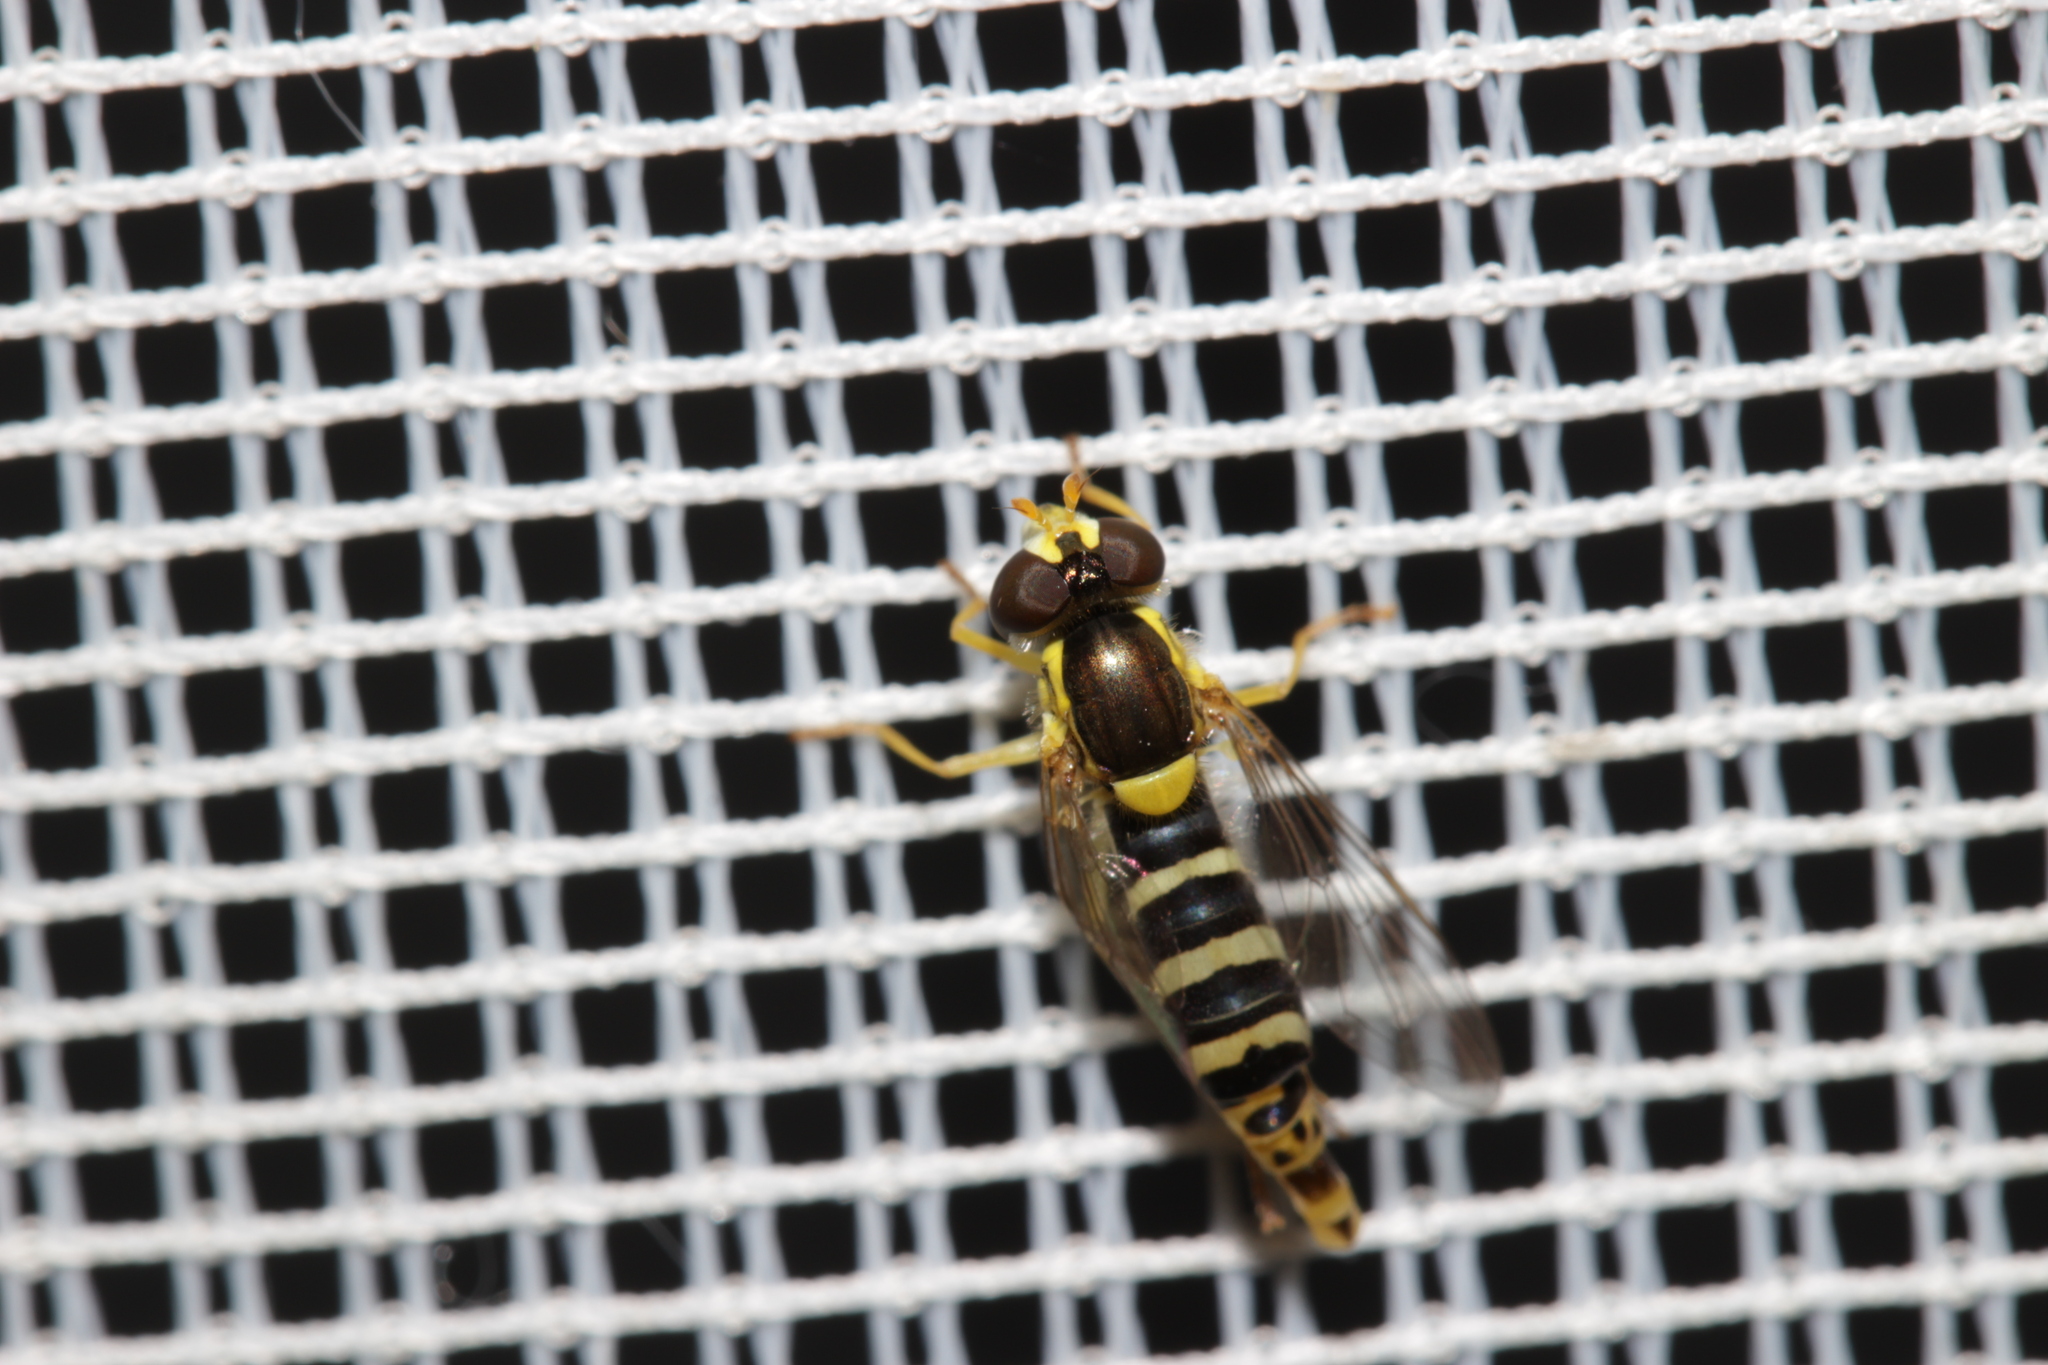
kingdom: Animalia
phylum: Arthropoda
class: Insecta
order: Diptera
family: Syrphidae
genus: Sphaerophoria
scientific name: Sphaerophoria
